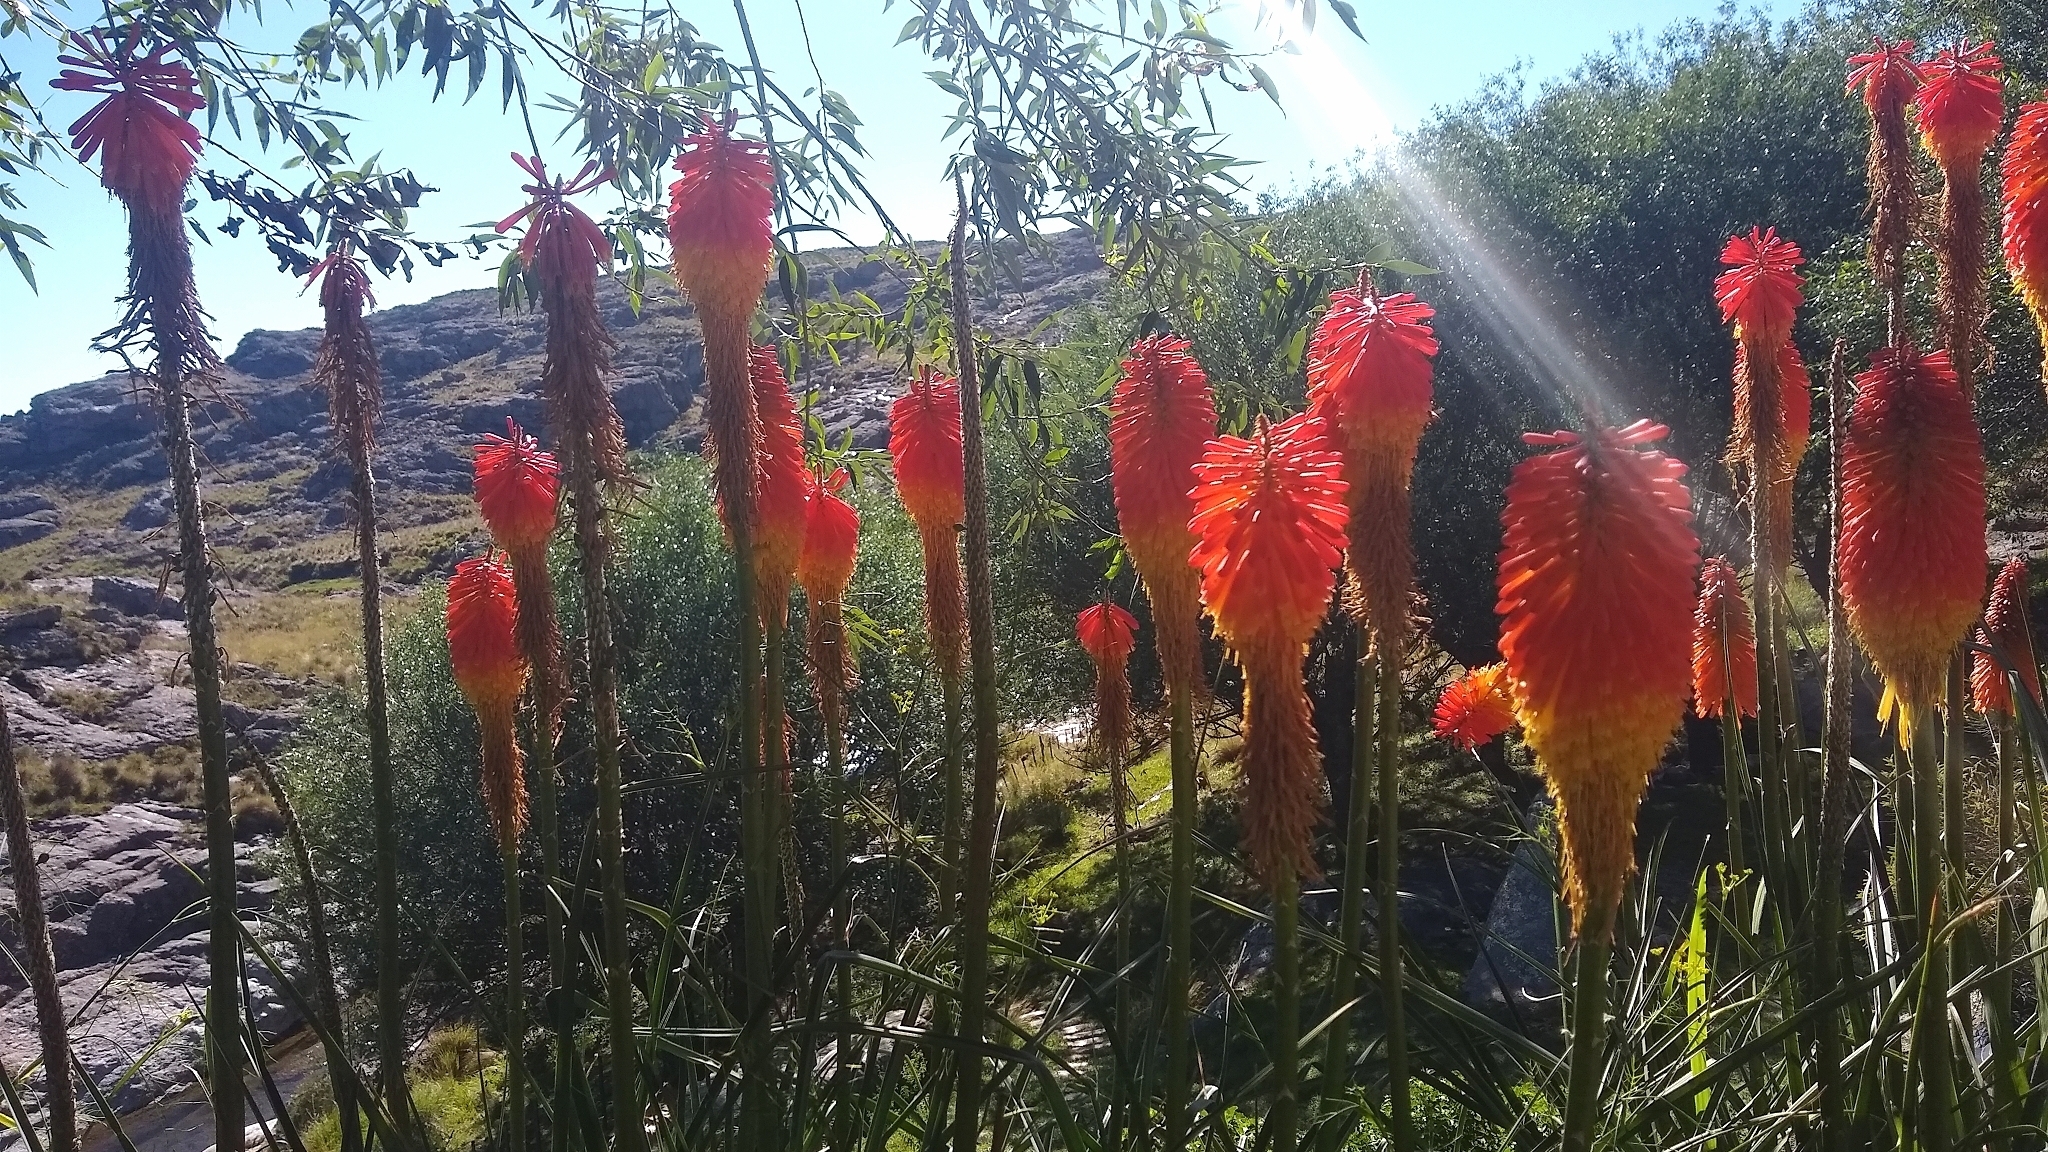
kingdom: Plantae
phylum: Tracheophyta
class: Liliopsida
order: Asparagales
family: Asphodelaceae
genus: Kniphofia
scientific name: Kniphofia uvaria
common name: Red-hot-poker
